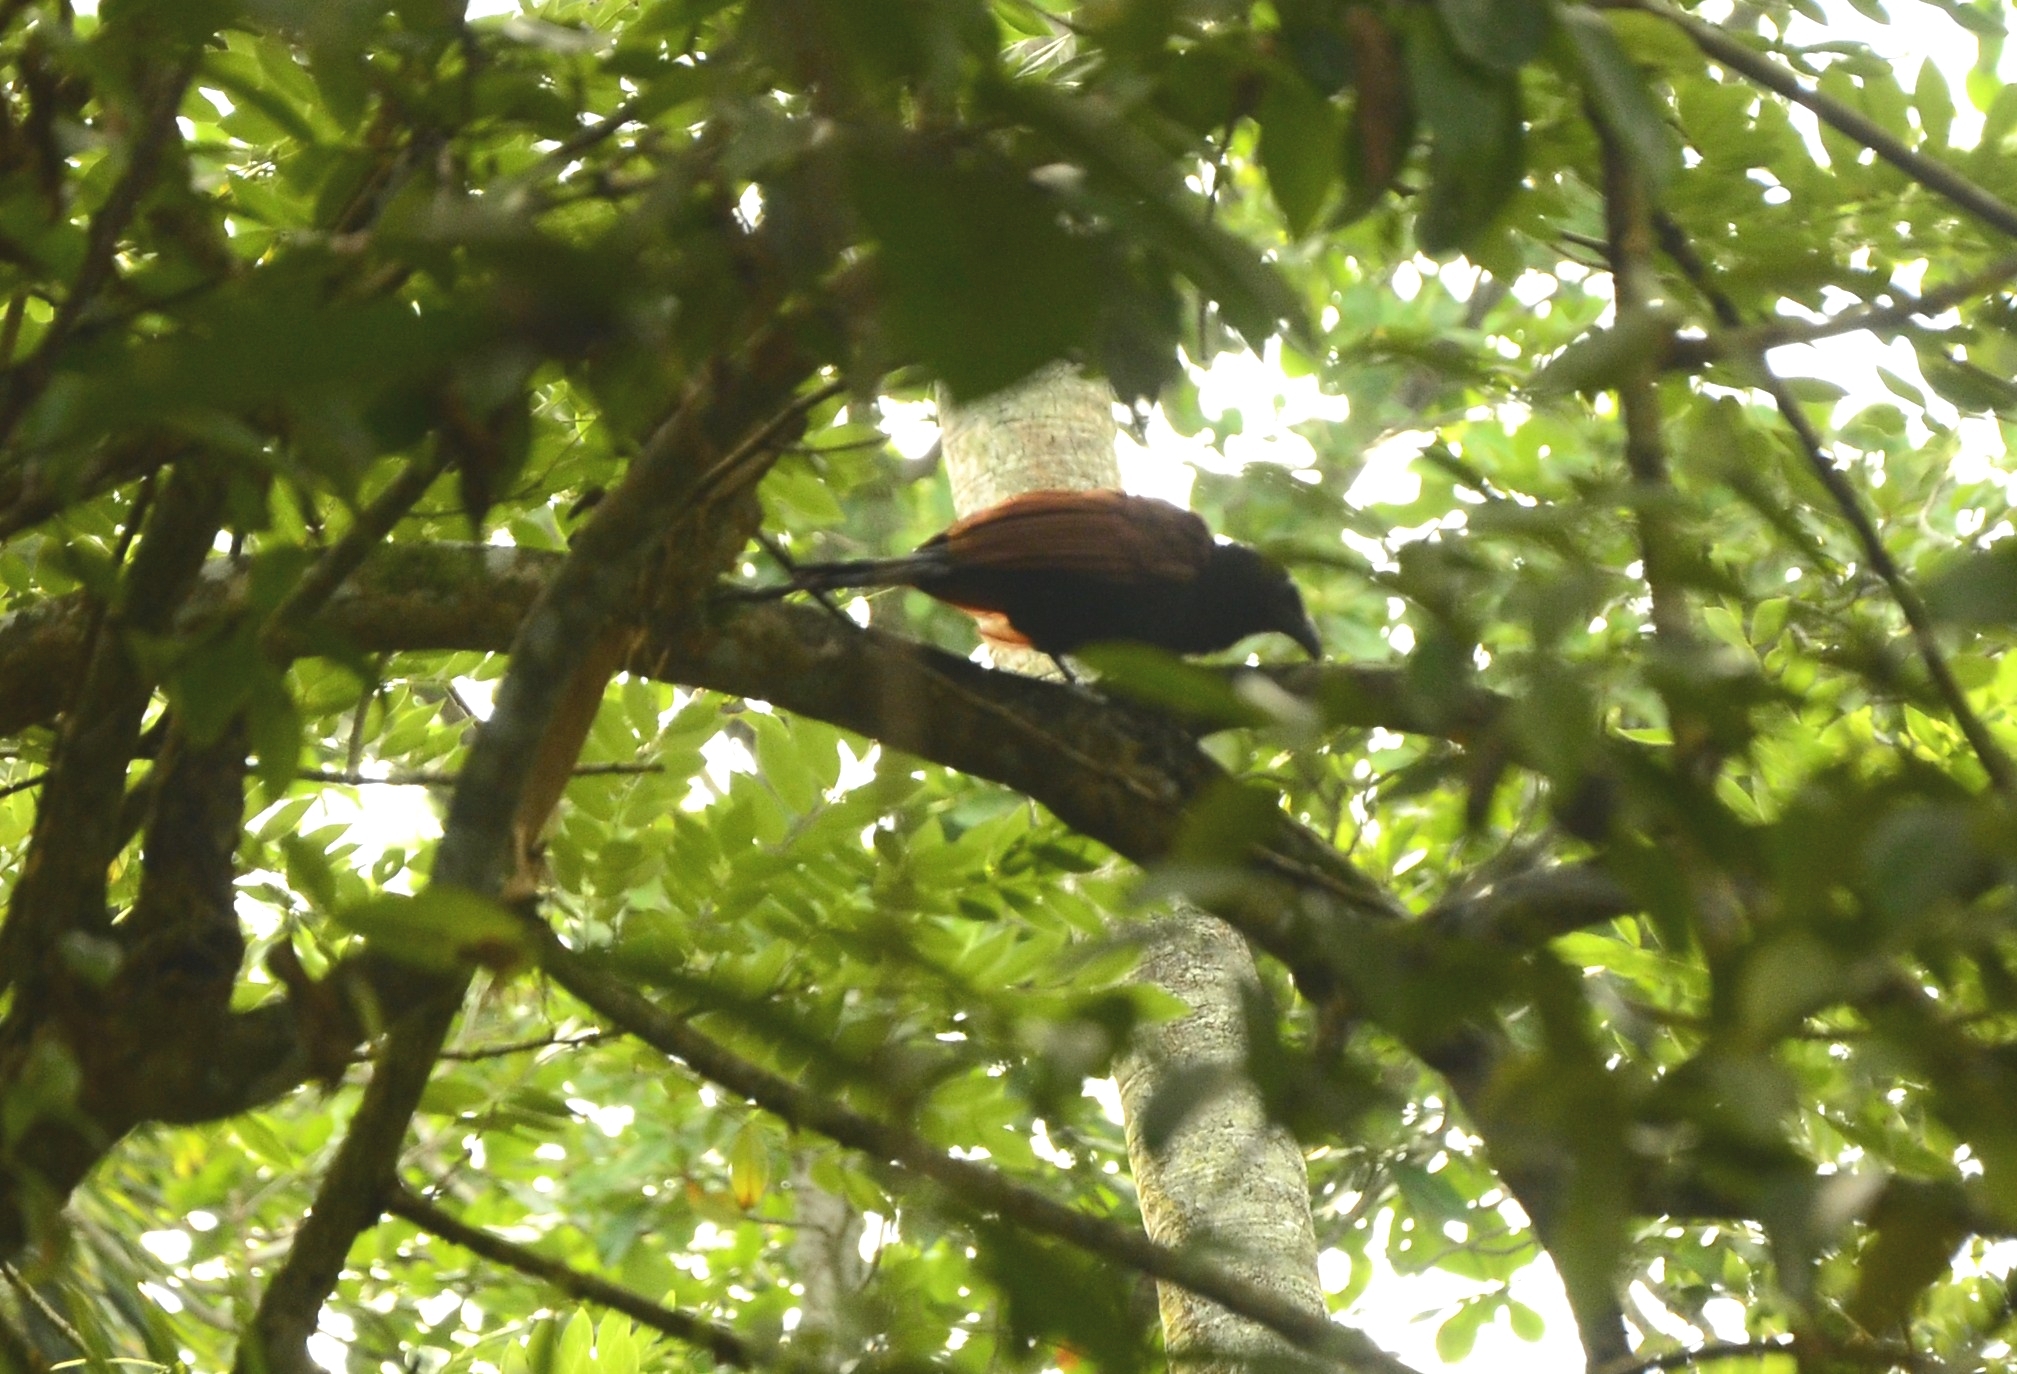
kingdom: Animalia
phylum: Chordata
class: Aves
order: Cuculiformes
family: Cuculidae
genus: Centropus
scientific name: Centropus sinensis
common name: Greater coucal
